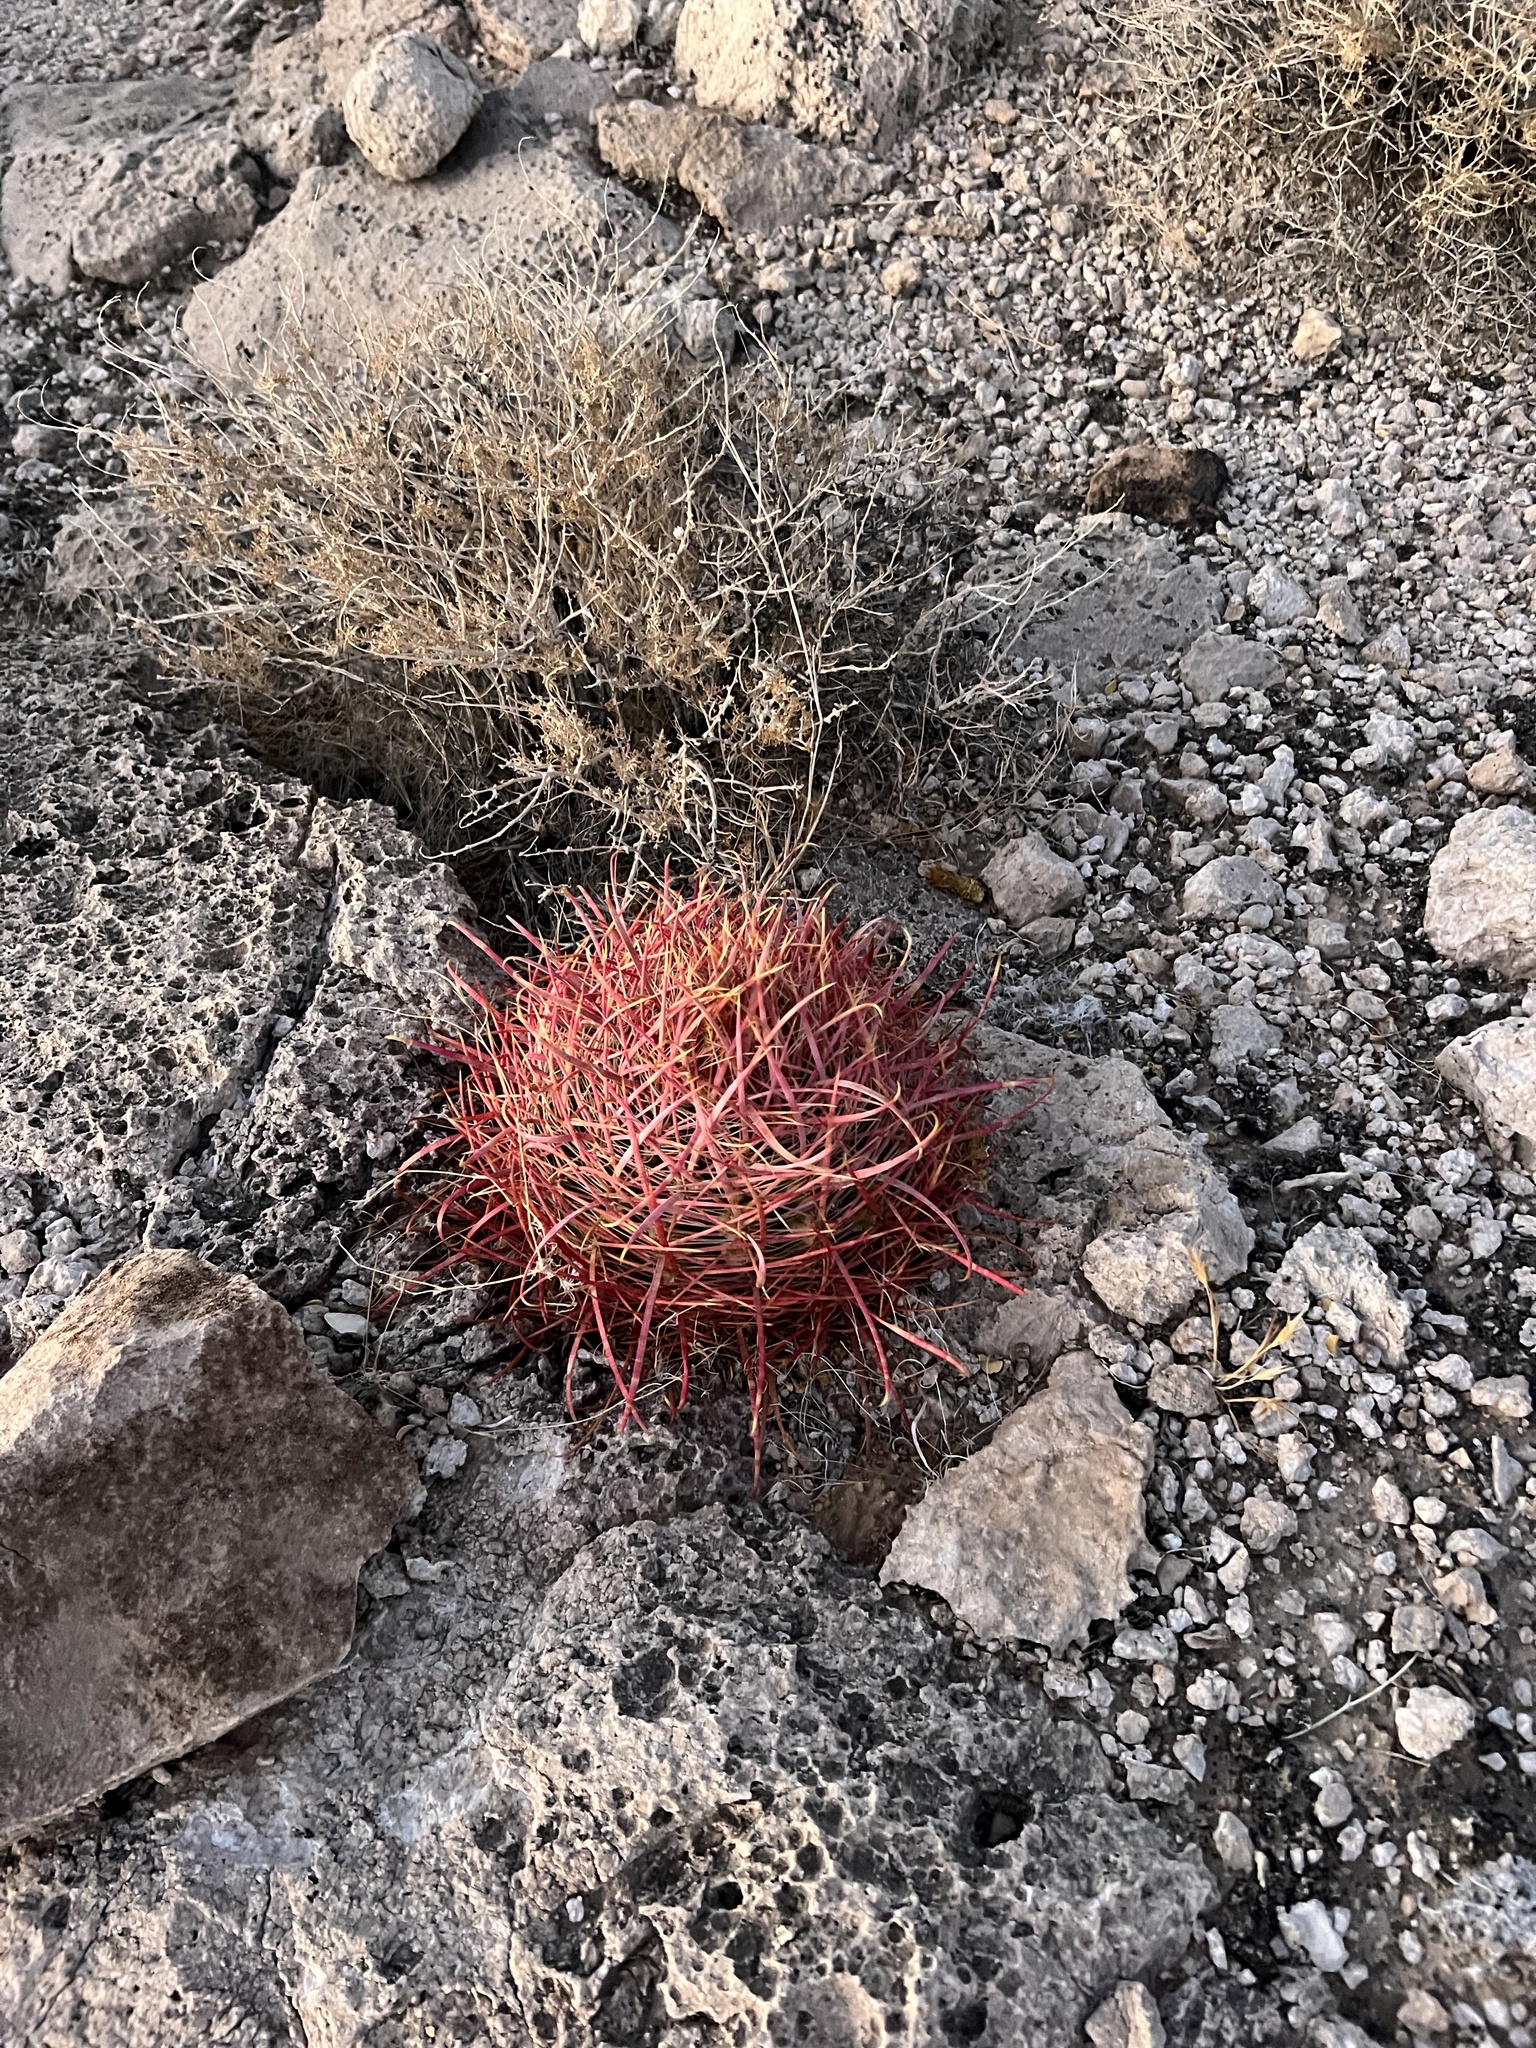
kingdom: Plantae
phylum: Tracheophyta
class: Magnoliopsida
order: Caryophyllales
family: Cactaceae
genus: Ferocactus
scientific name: Ferocactus cylindraceus
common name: California barrel cactus
